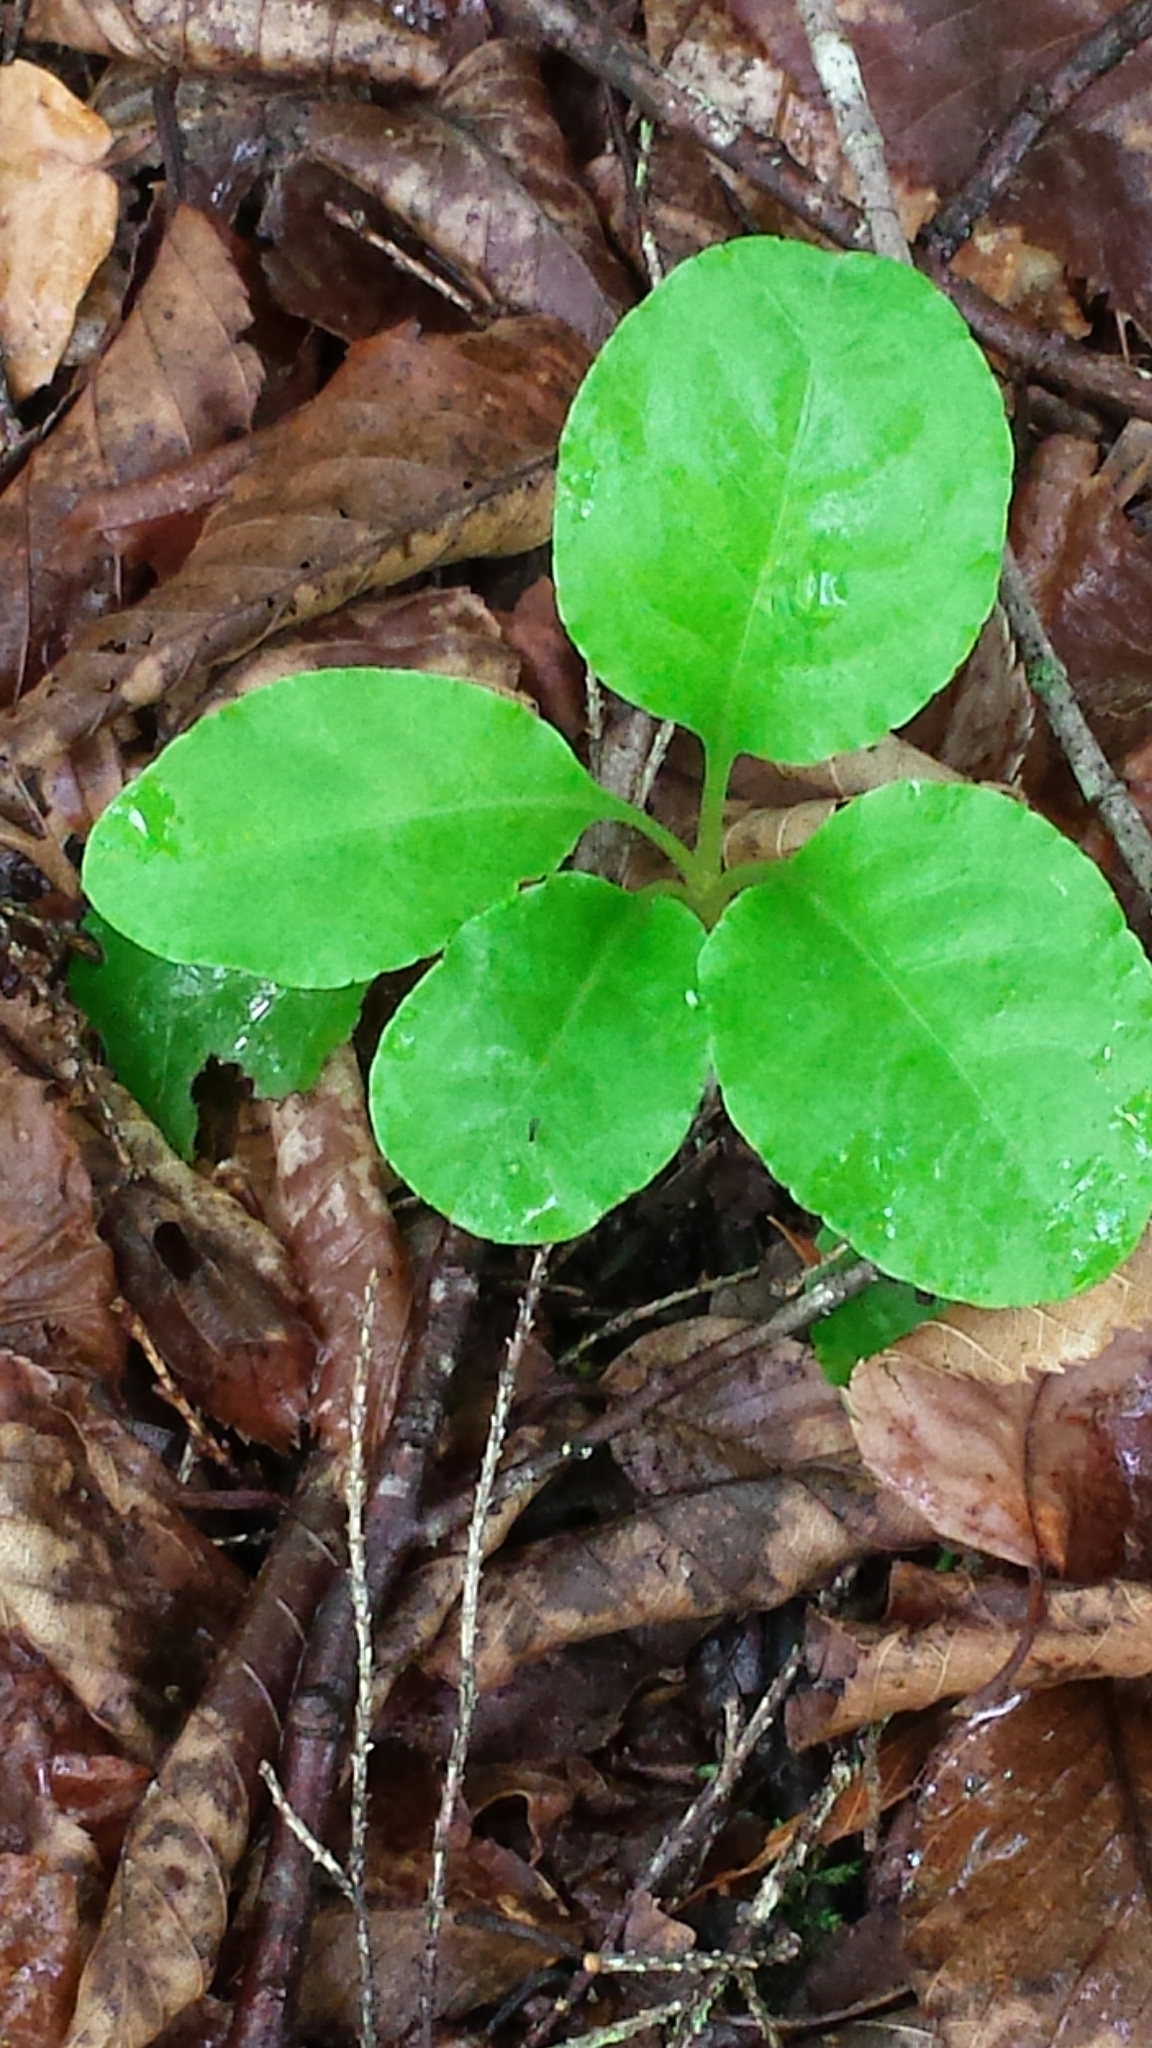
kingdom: Plantae
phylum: Tracheophyta
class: Magnoliopsida
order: Ericales
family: Ericaceae
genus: Pyrola
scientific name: Pyrola elliptica
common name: Shinleaf
